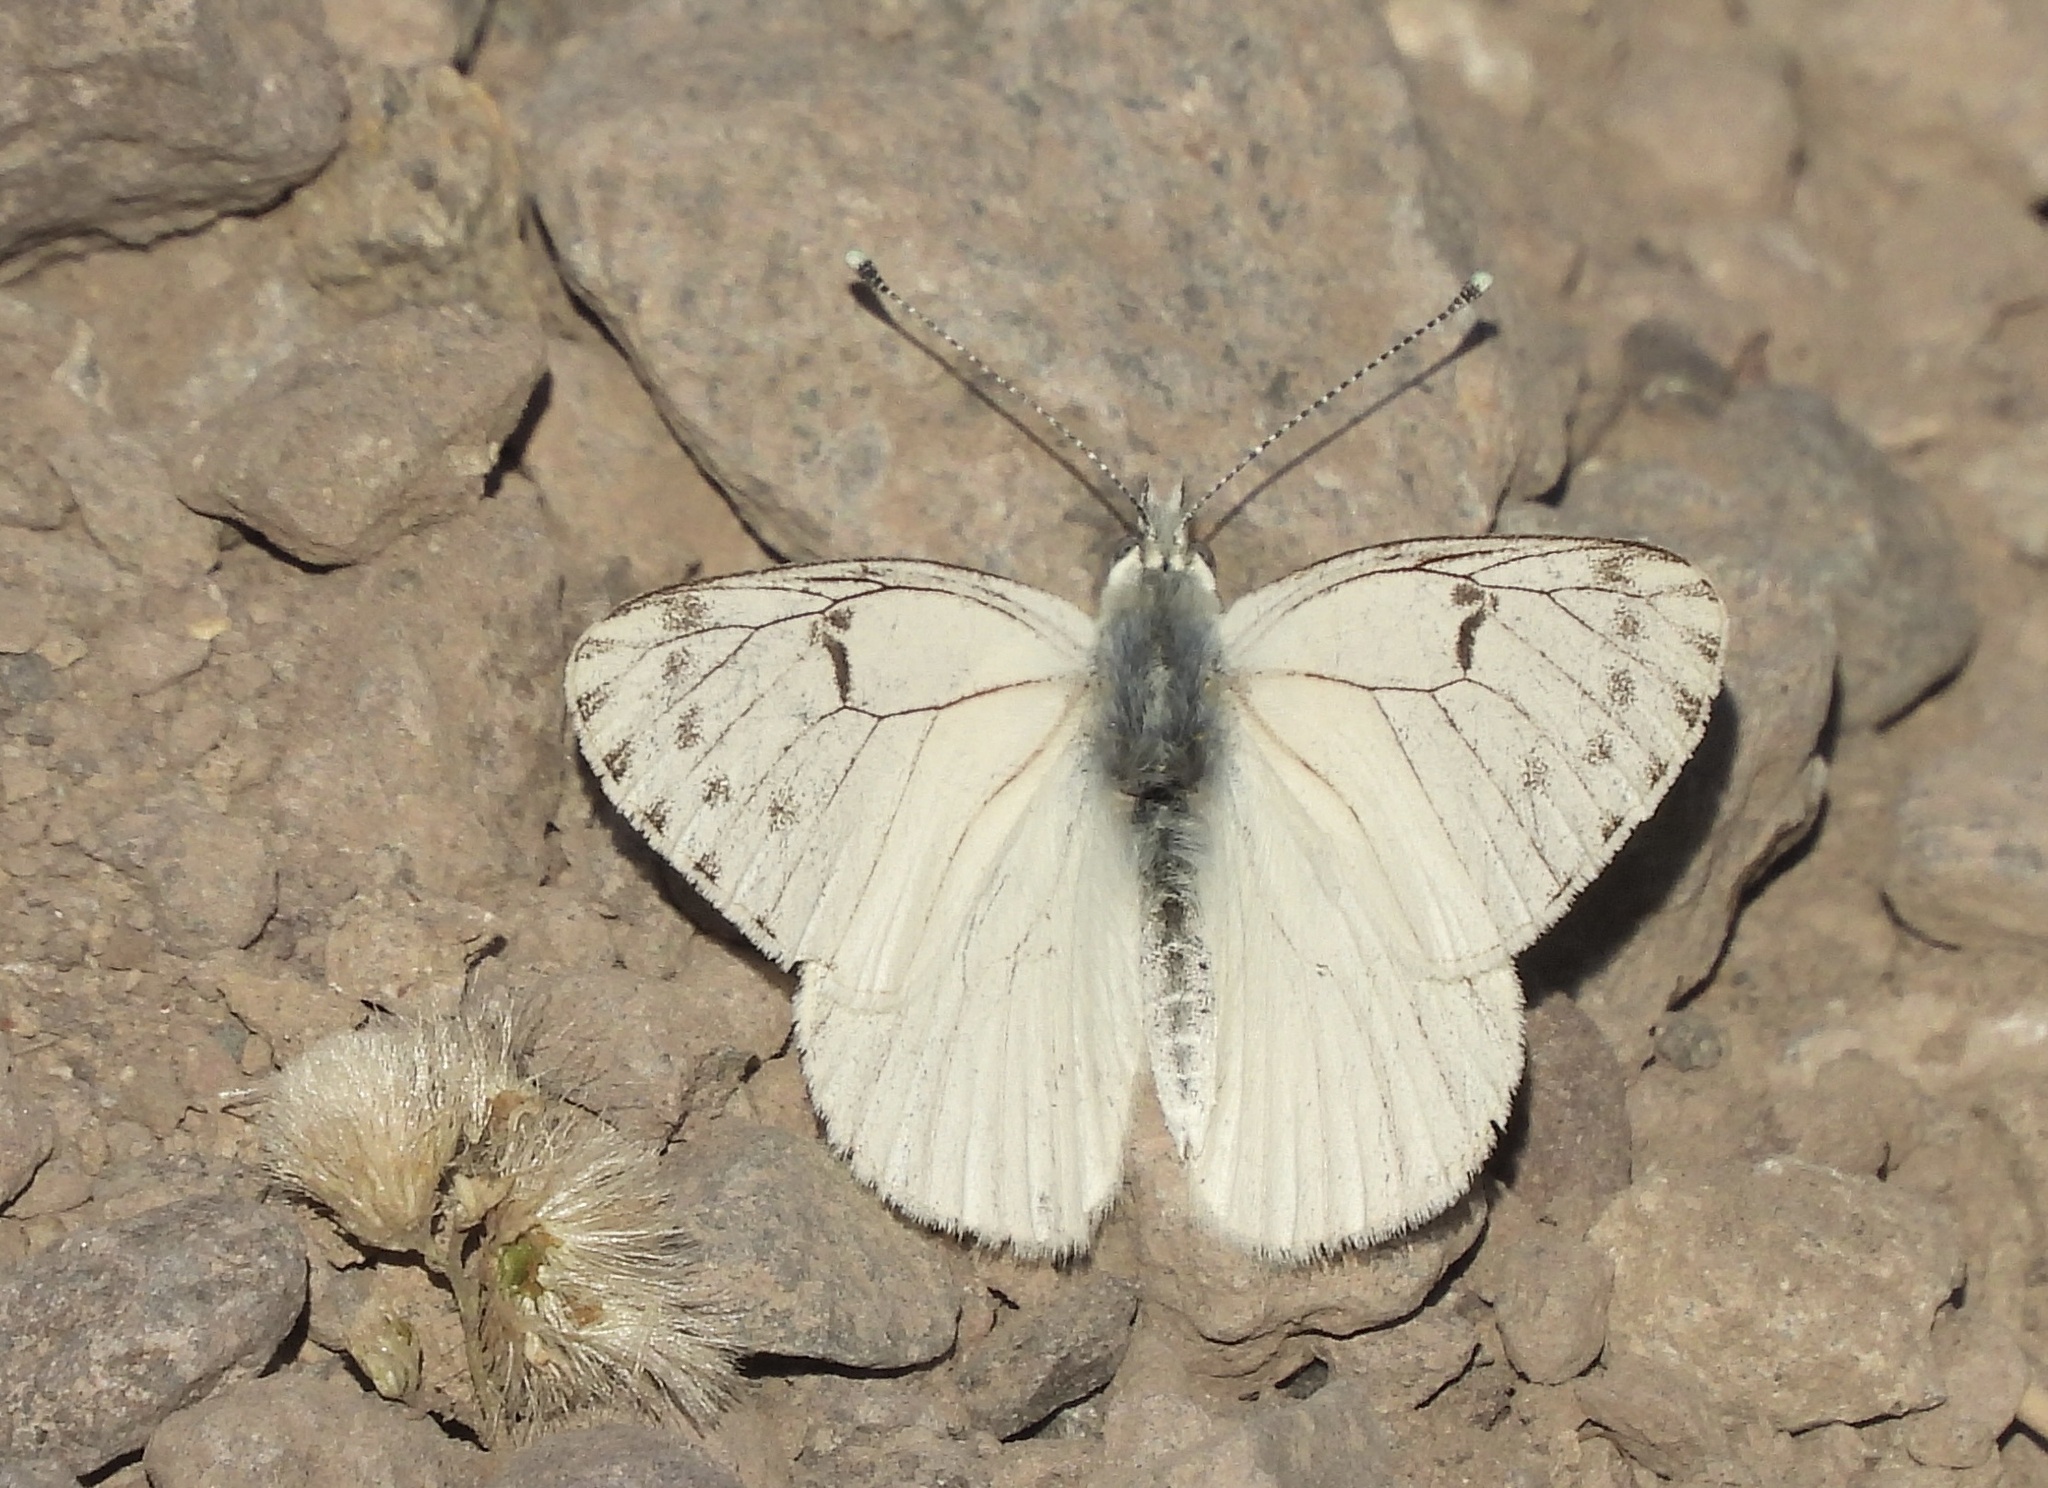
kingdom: Animalia
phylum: Arthropoda
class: Insecta
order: Lepidoptera
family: Pieridae
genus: Tatochila
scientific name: Tatochila mercedis
